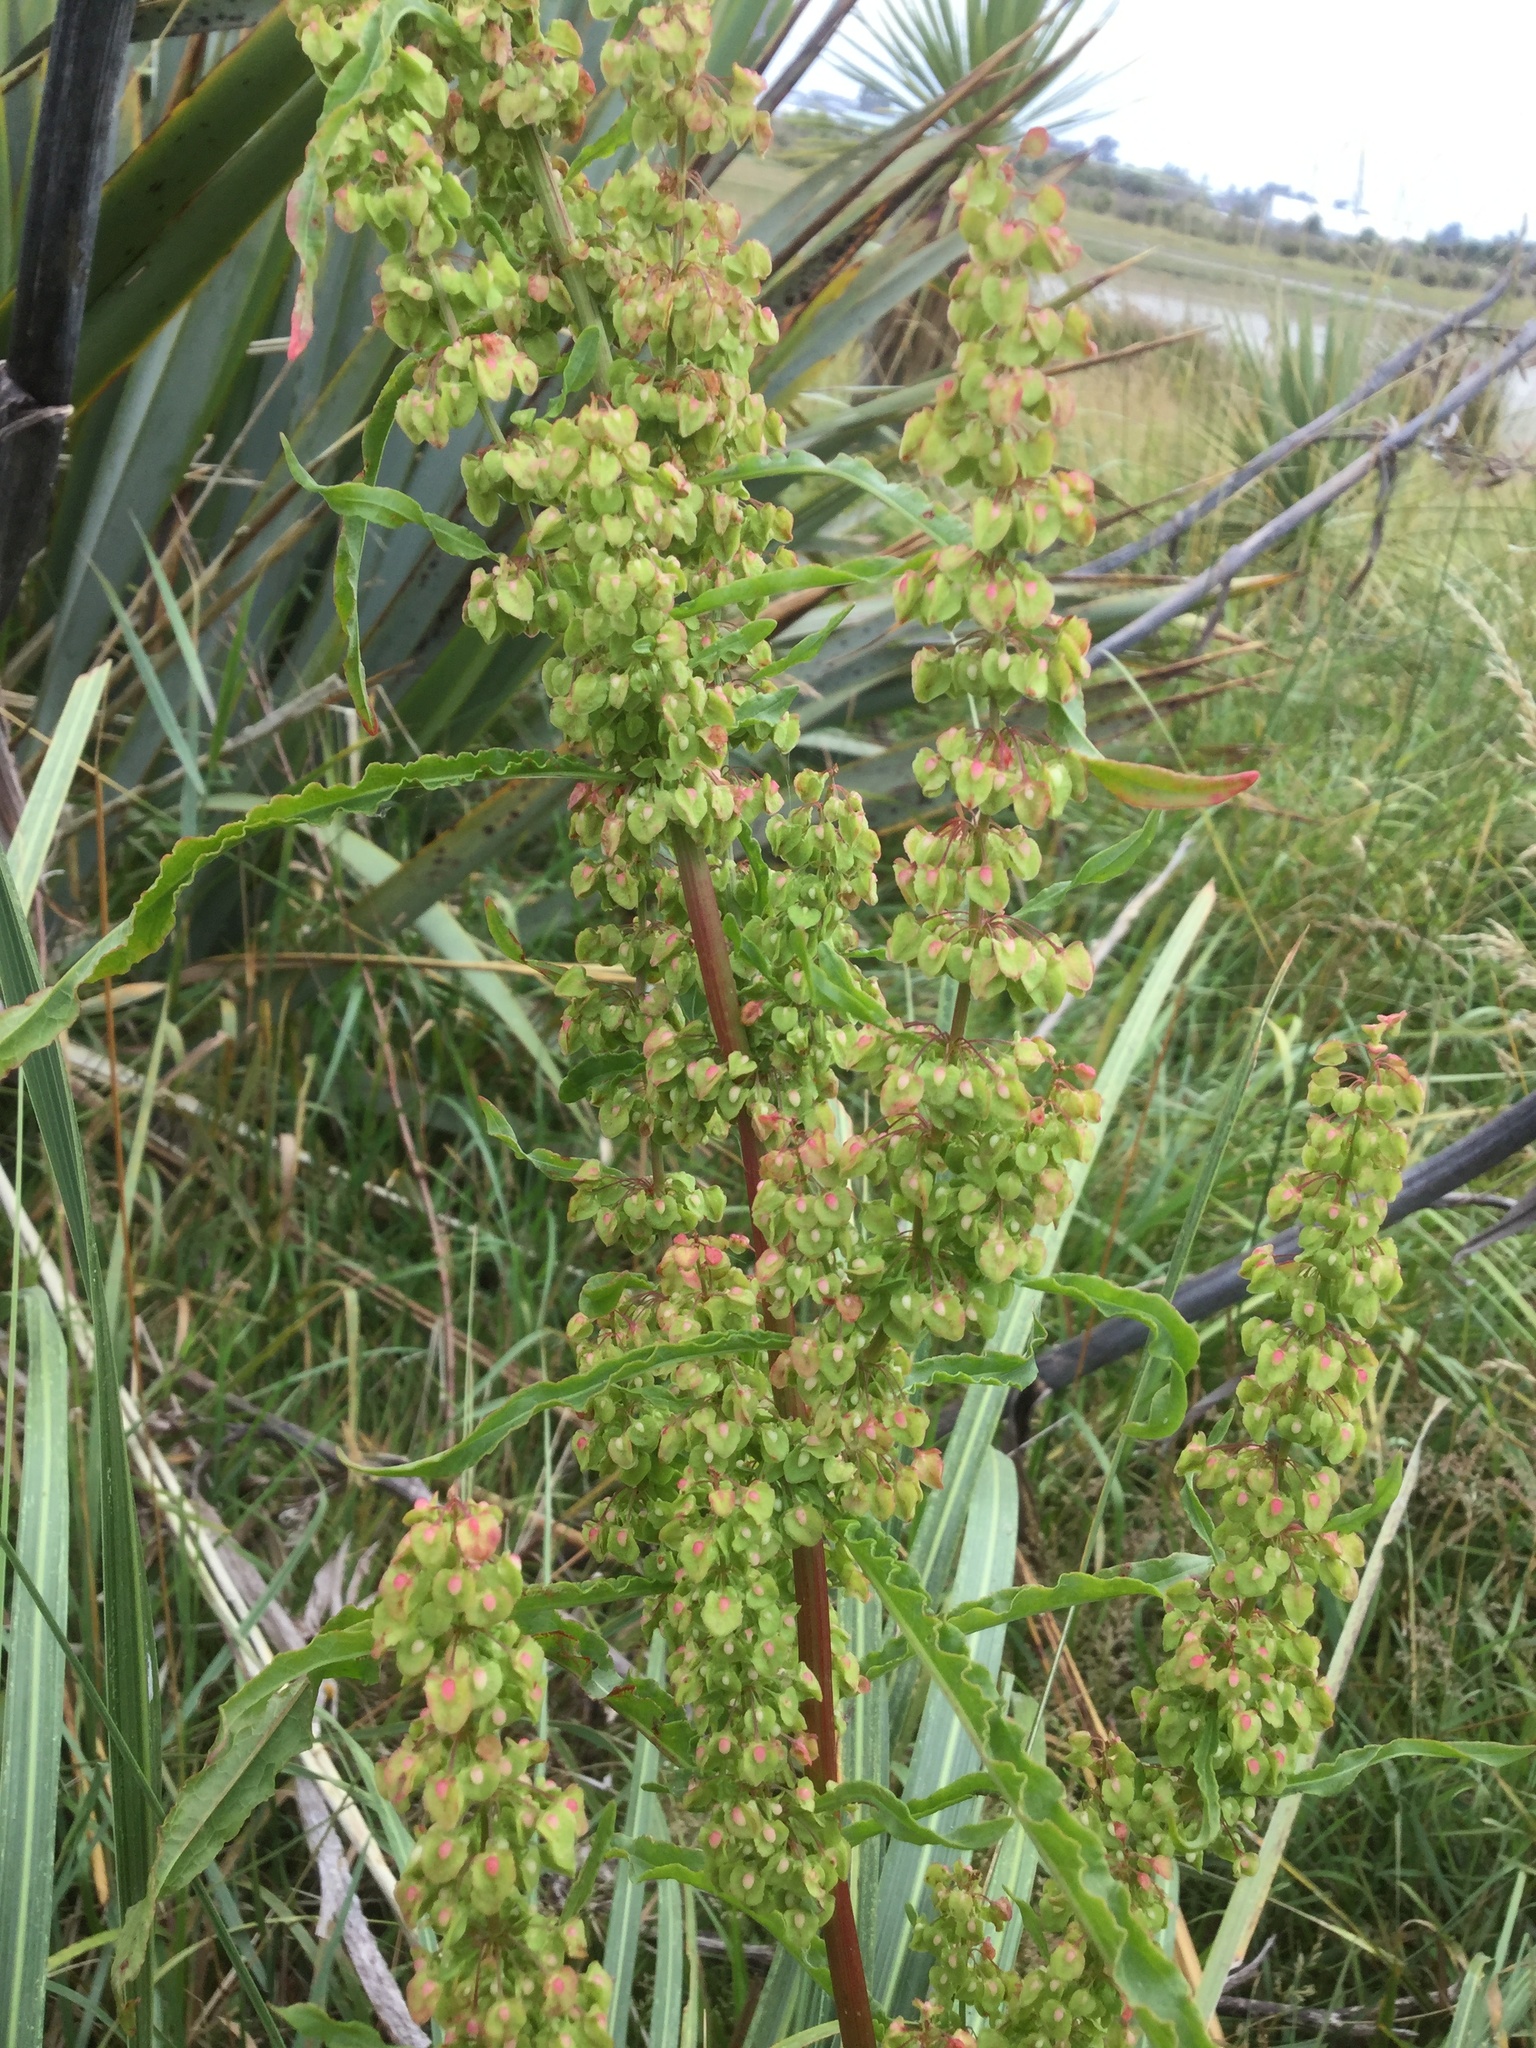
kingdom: Plantae
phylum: Tracheophyta
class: Magnoliopsida
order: Caryophyllales
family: Polygonaceae
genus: Rumex
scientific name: Rumex crispus
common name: Curled dock
